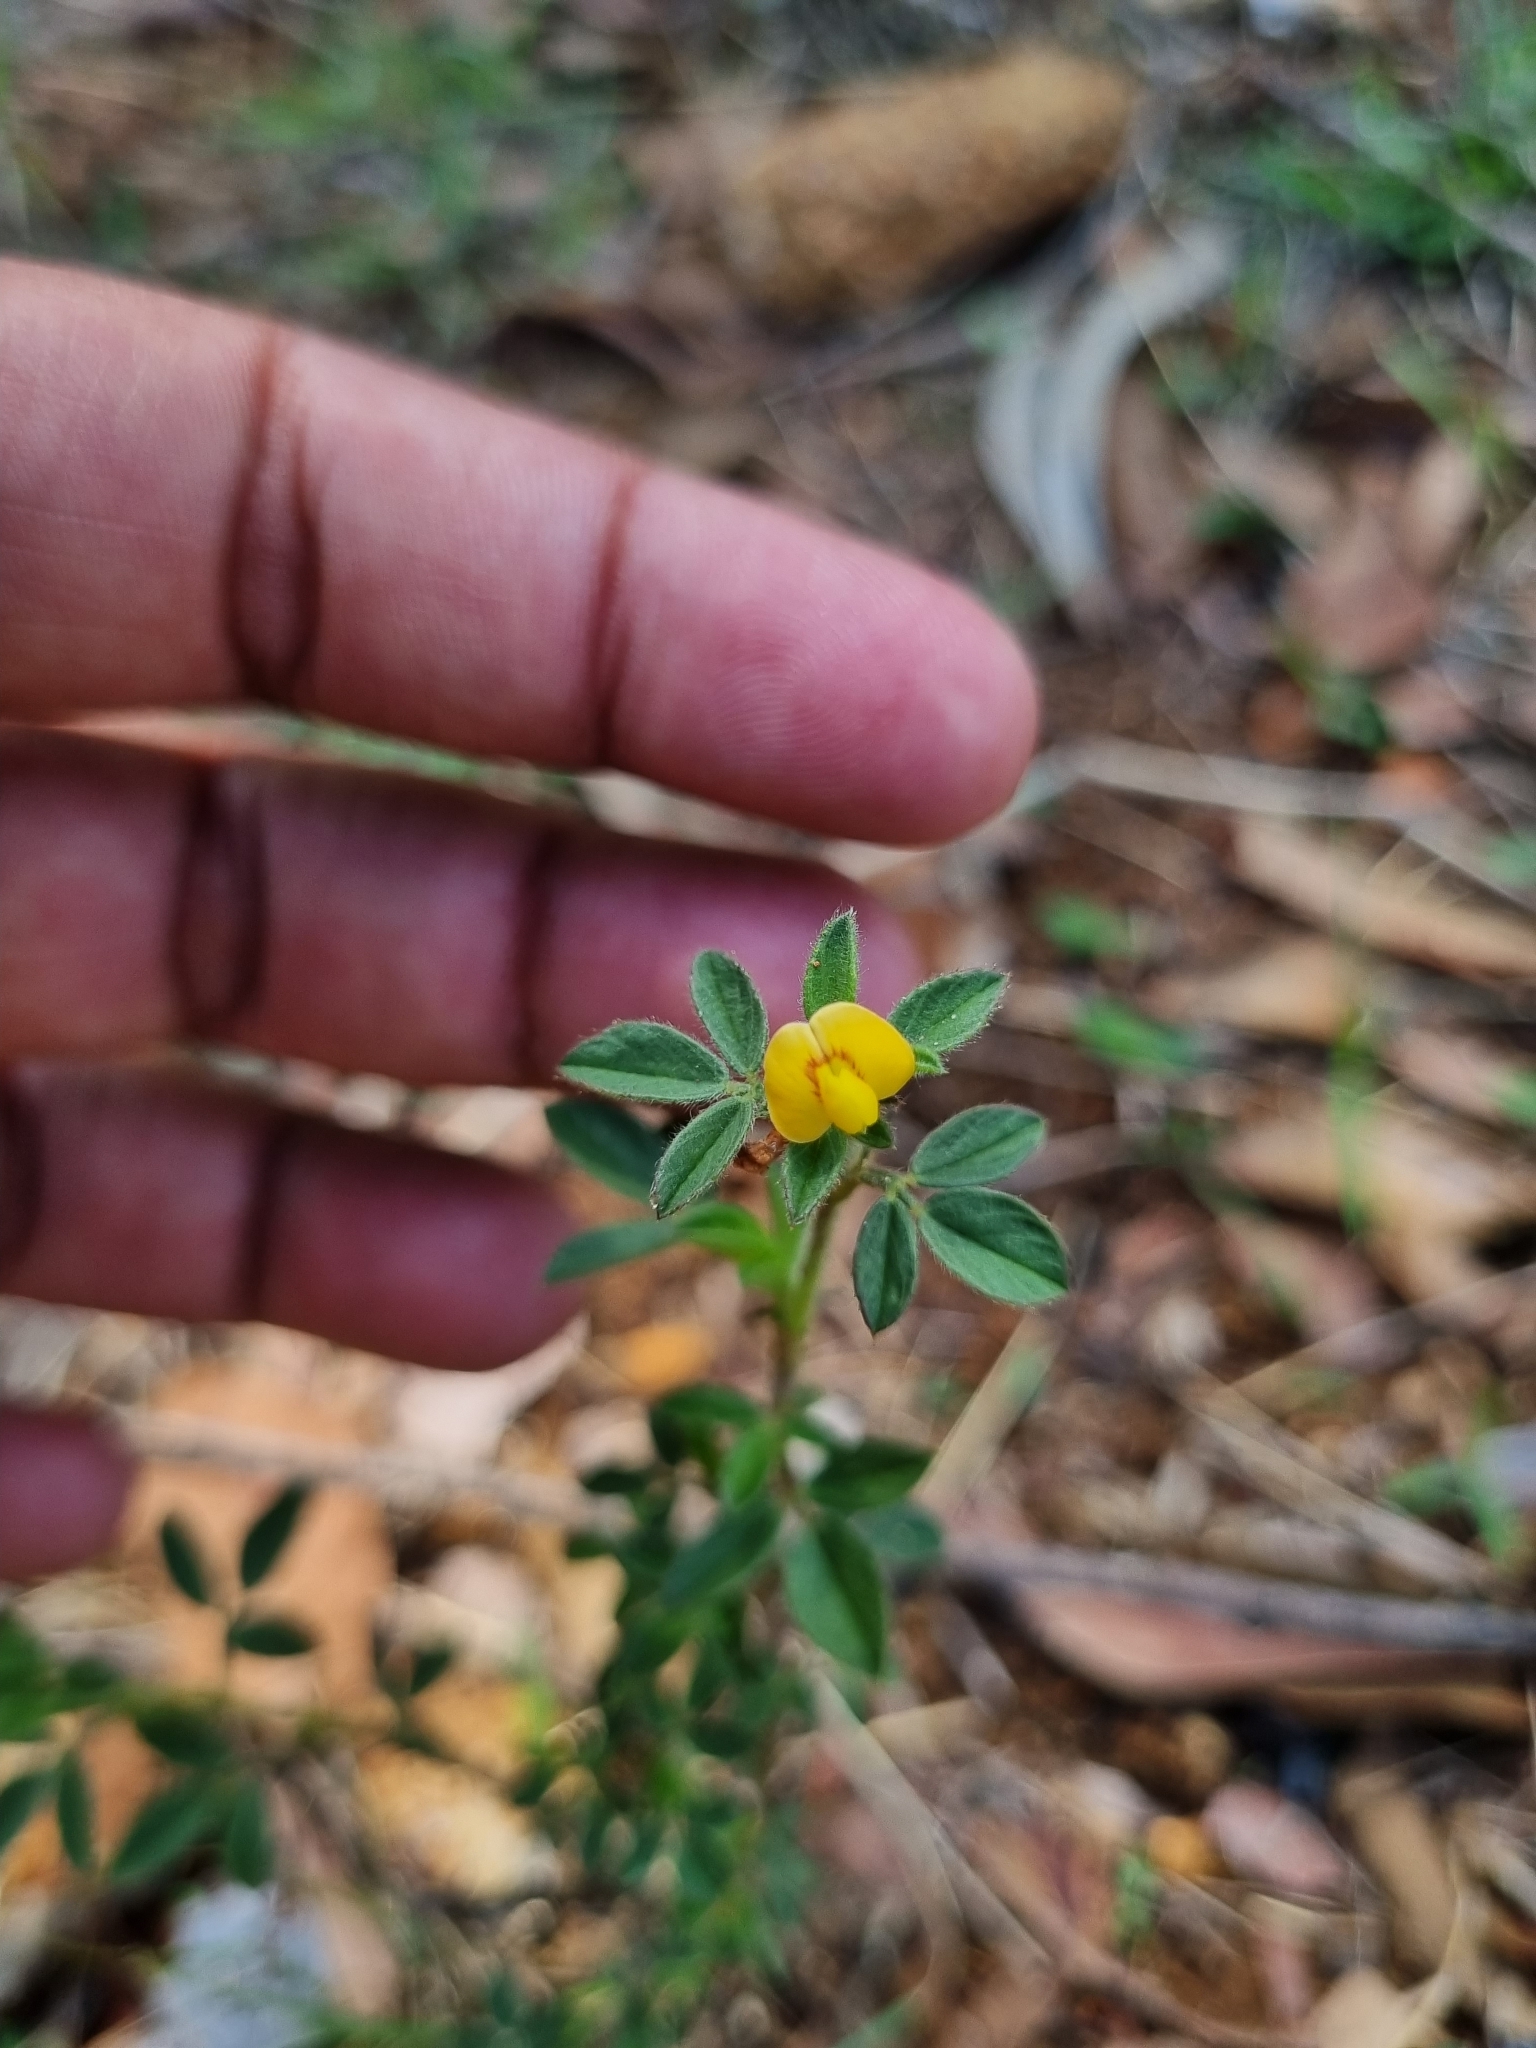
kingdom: Plantae
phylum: Tracheophyta
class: Magnoliopsida
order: Fabales
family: Fabaceae
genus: Stylosanthes
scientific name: Stylosanthes hamata
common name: Cheesytoes
